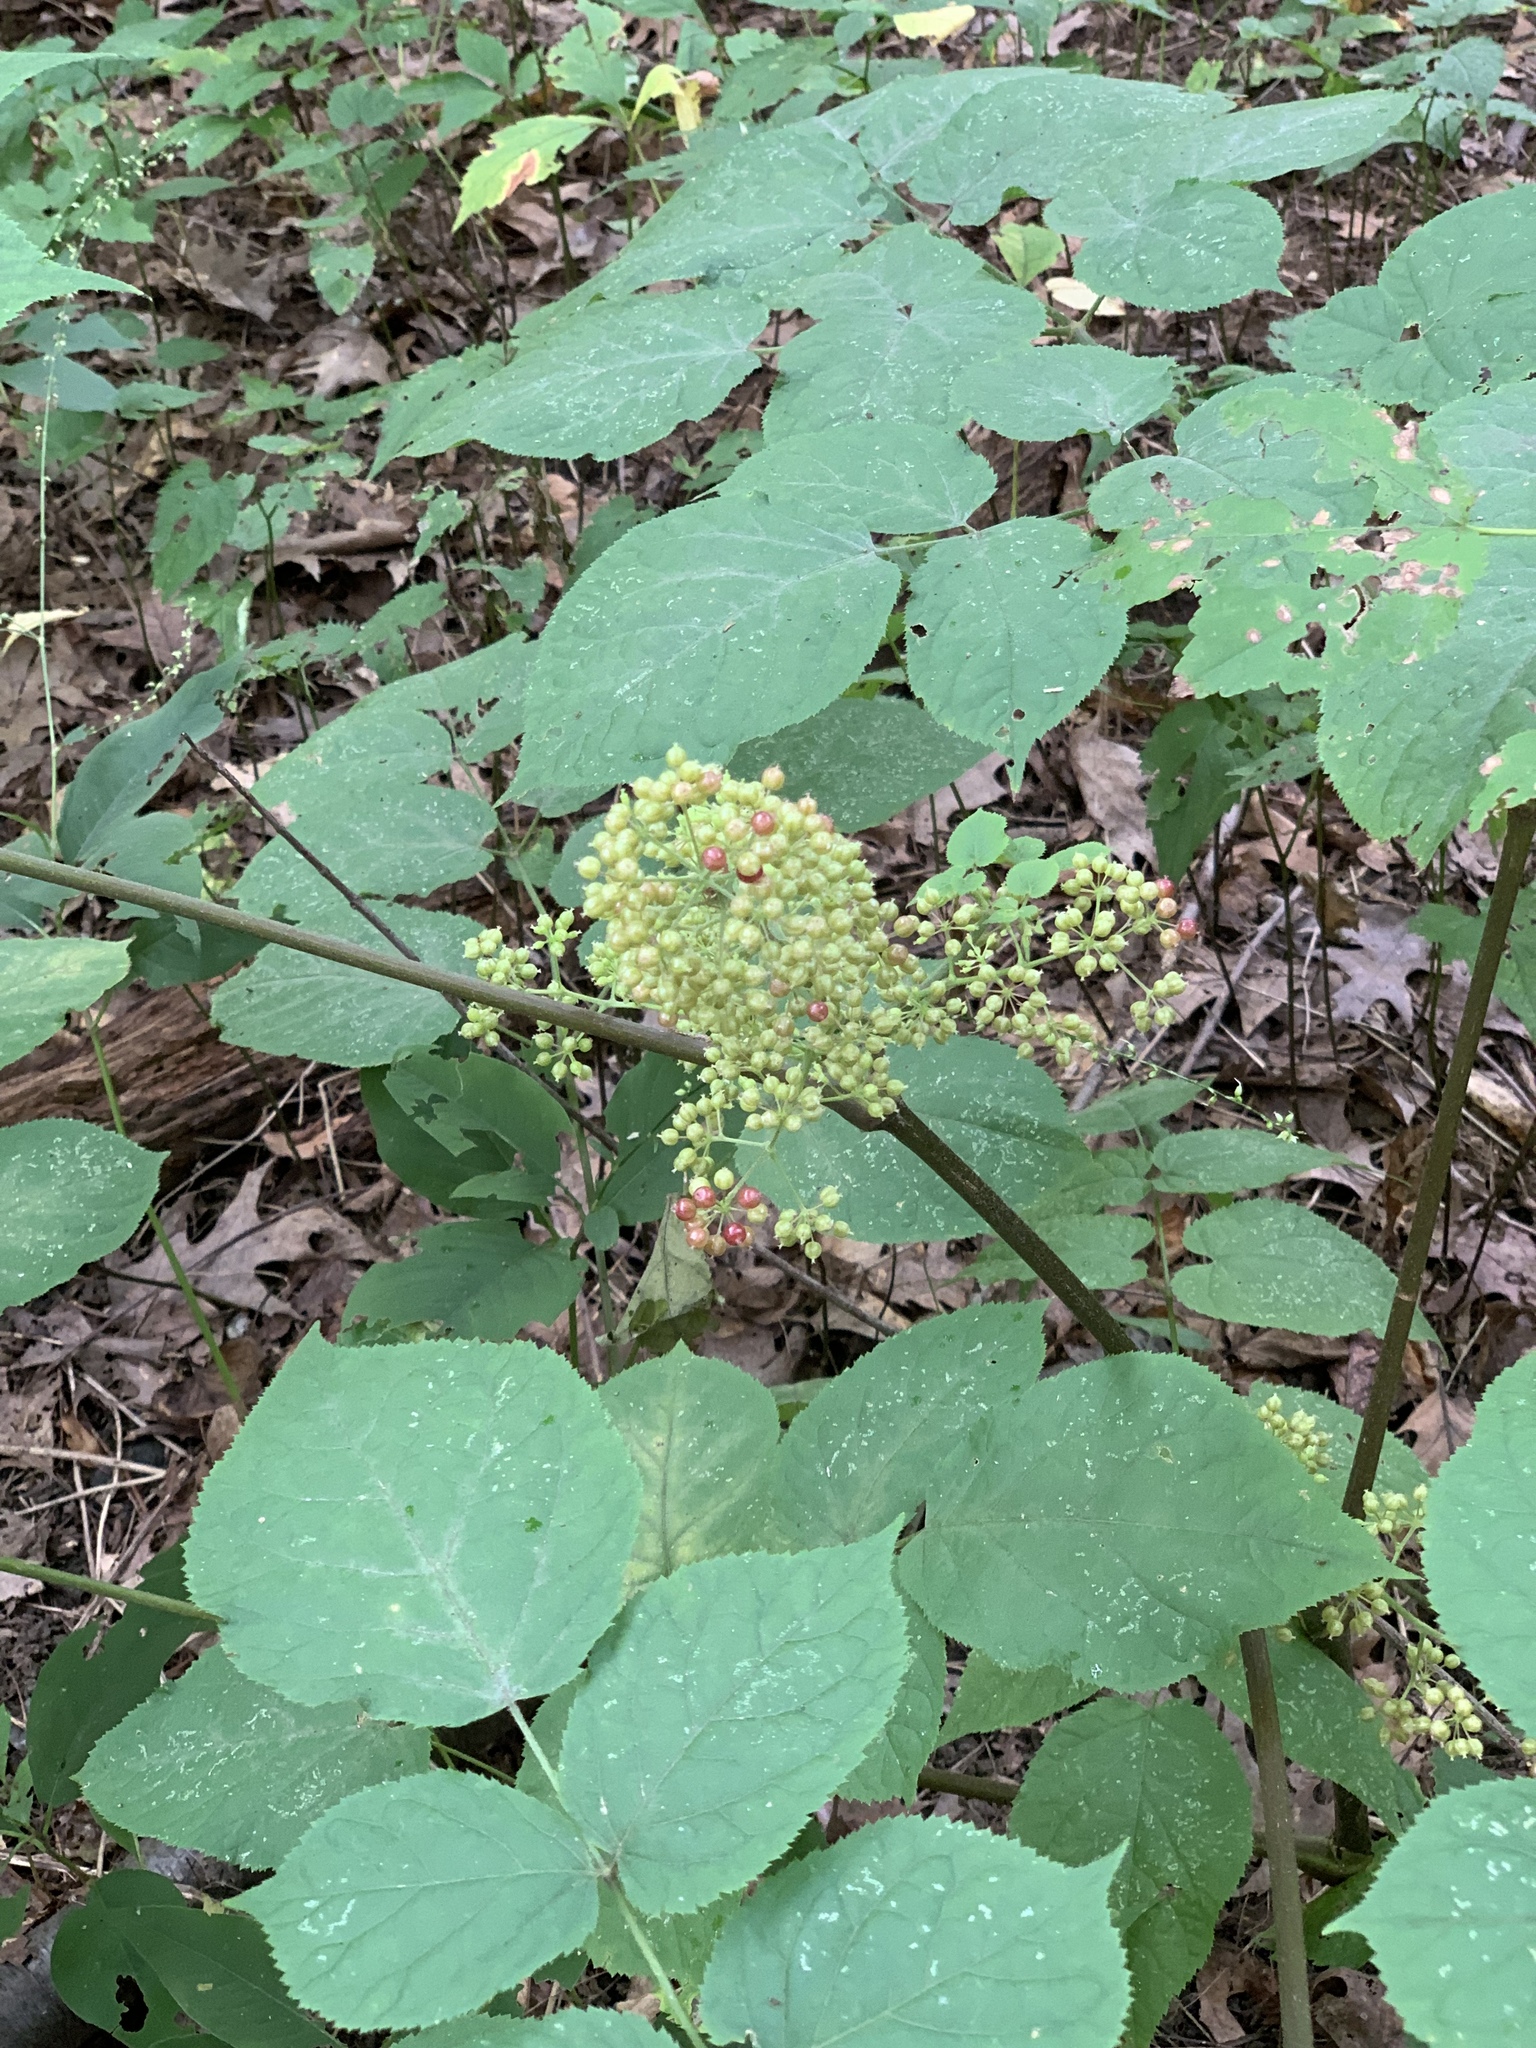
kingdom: Plantae
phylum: Tracheophyta
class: Magnoliopsida
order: Apiales
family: Araliaceae
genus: Aralia
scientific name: Aralia racemosa
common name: American-spikenard
